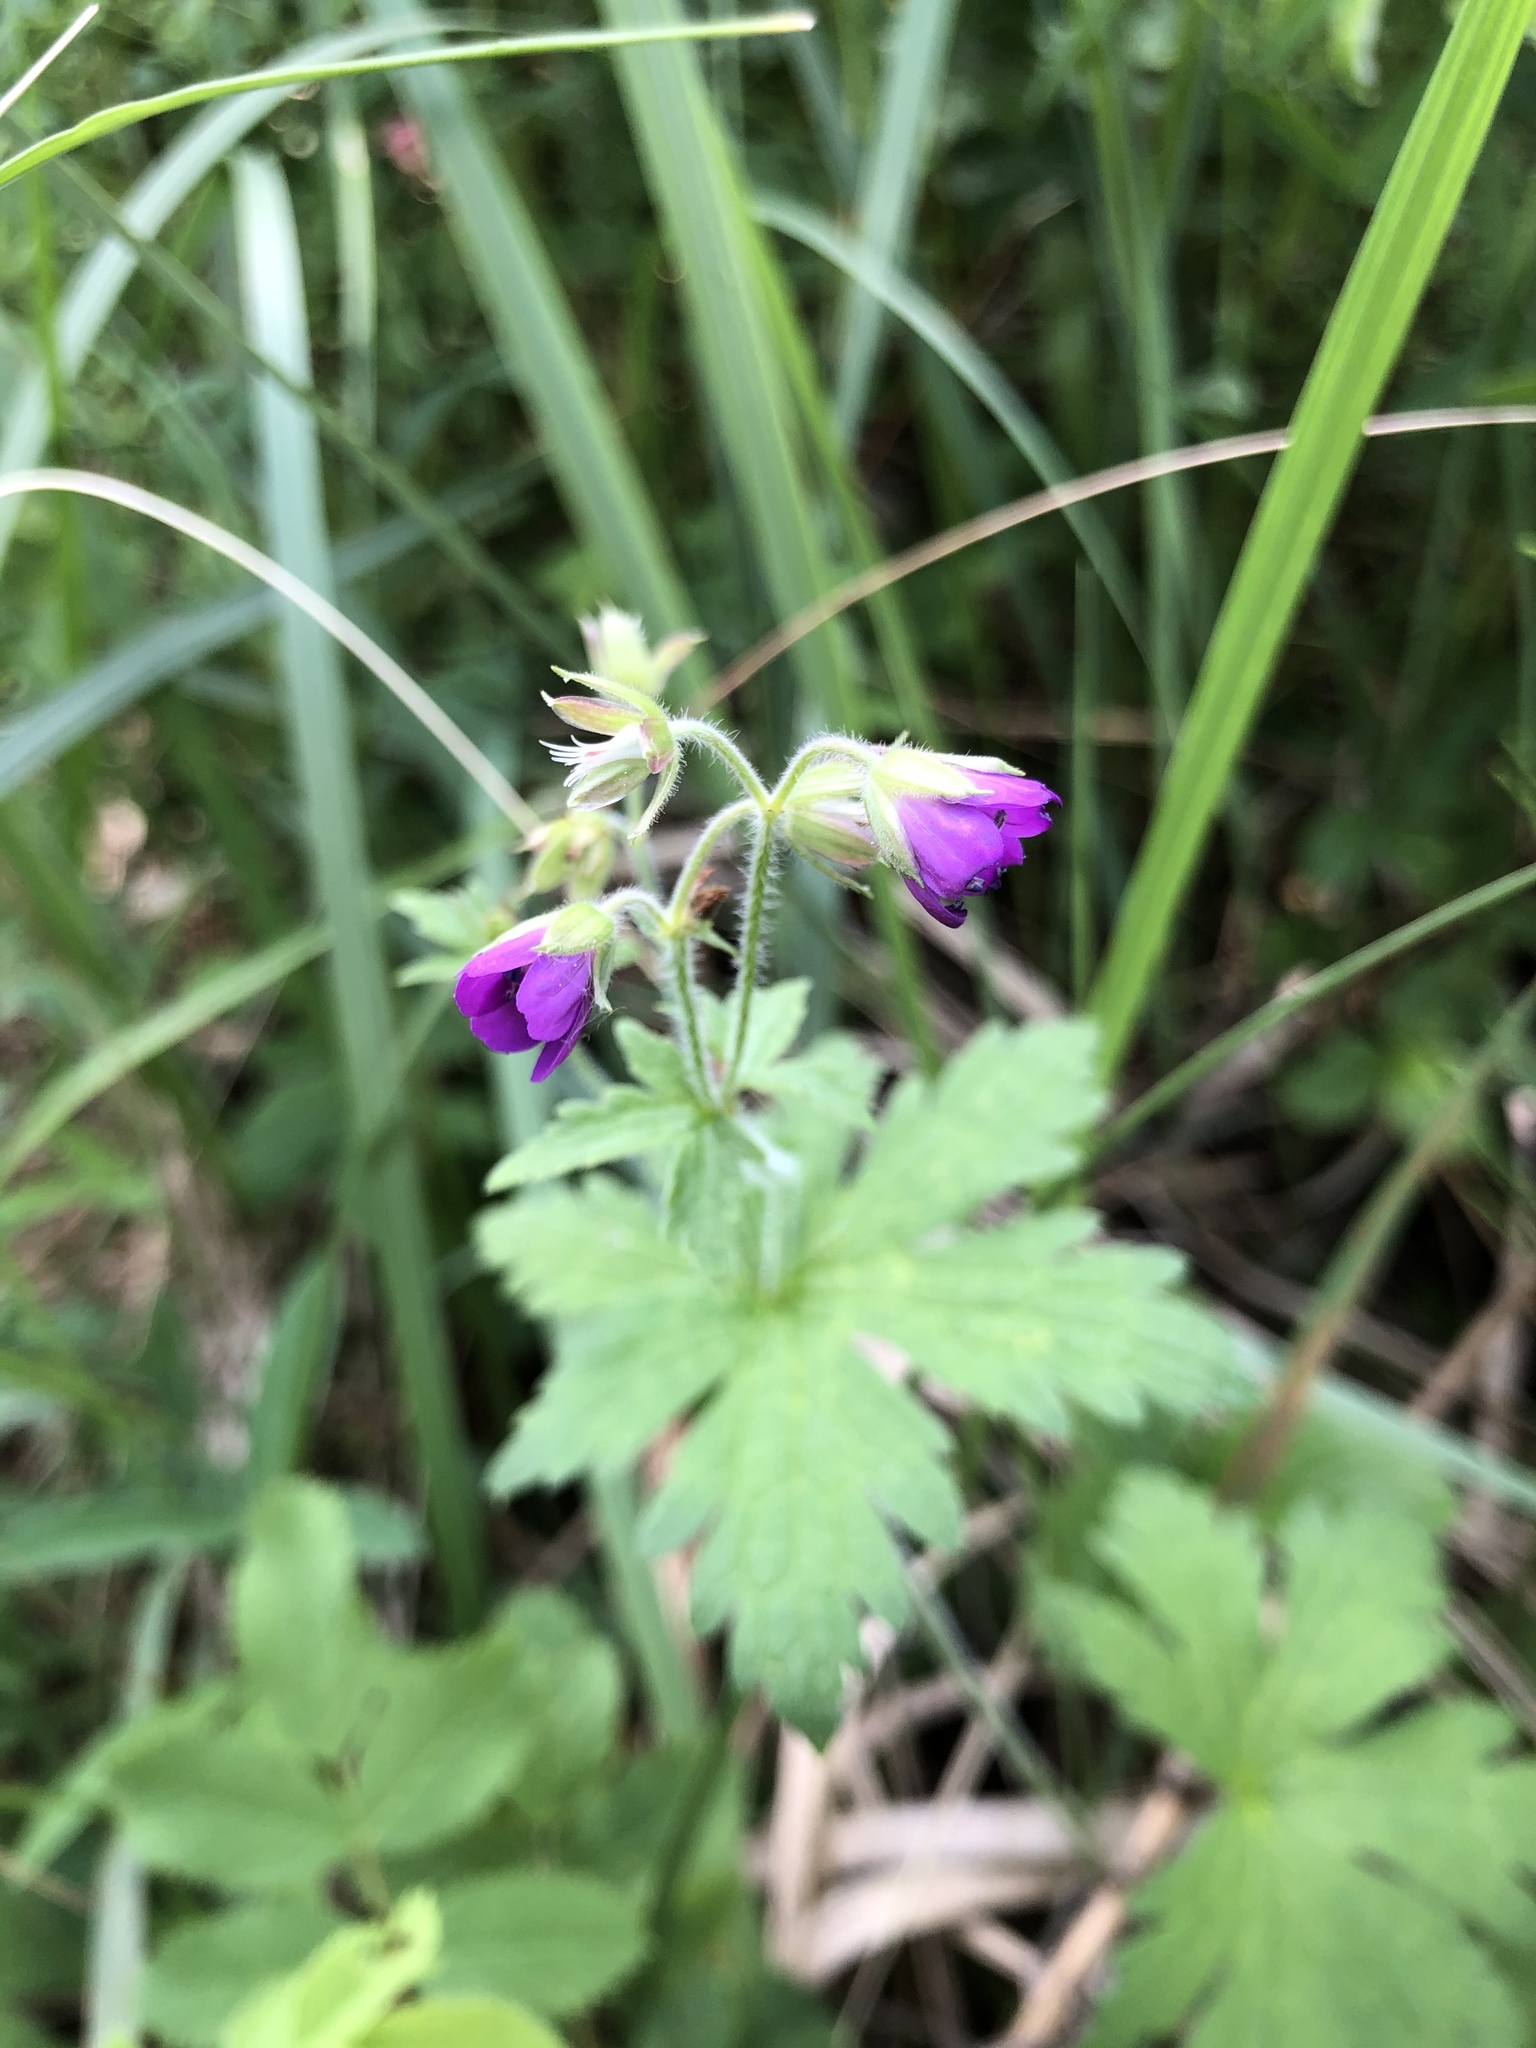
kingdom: Plantae
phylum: Tracheophyta
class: Magnoliopsida
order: Geraniales
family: Geraniaceae
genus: Geranium
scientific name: Geranium sylvaticum
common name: Wood crane's-bill
